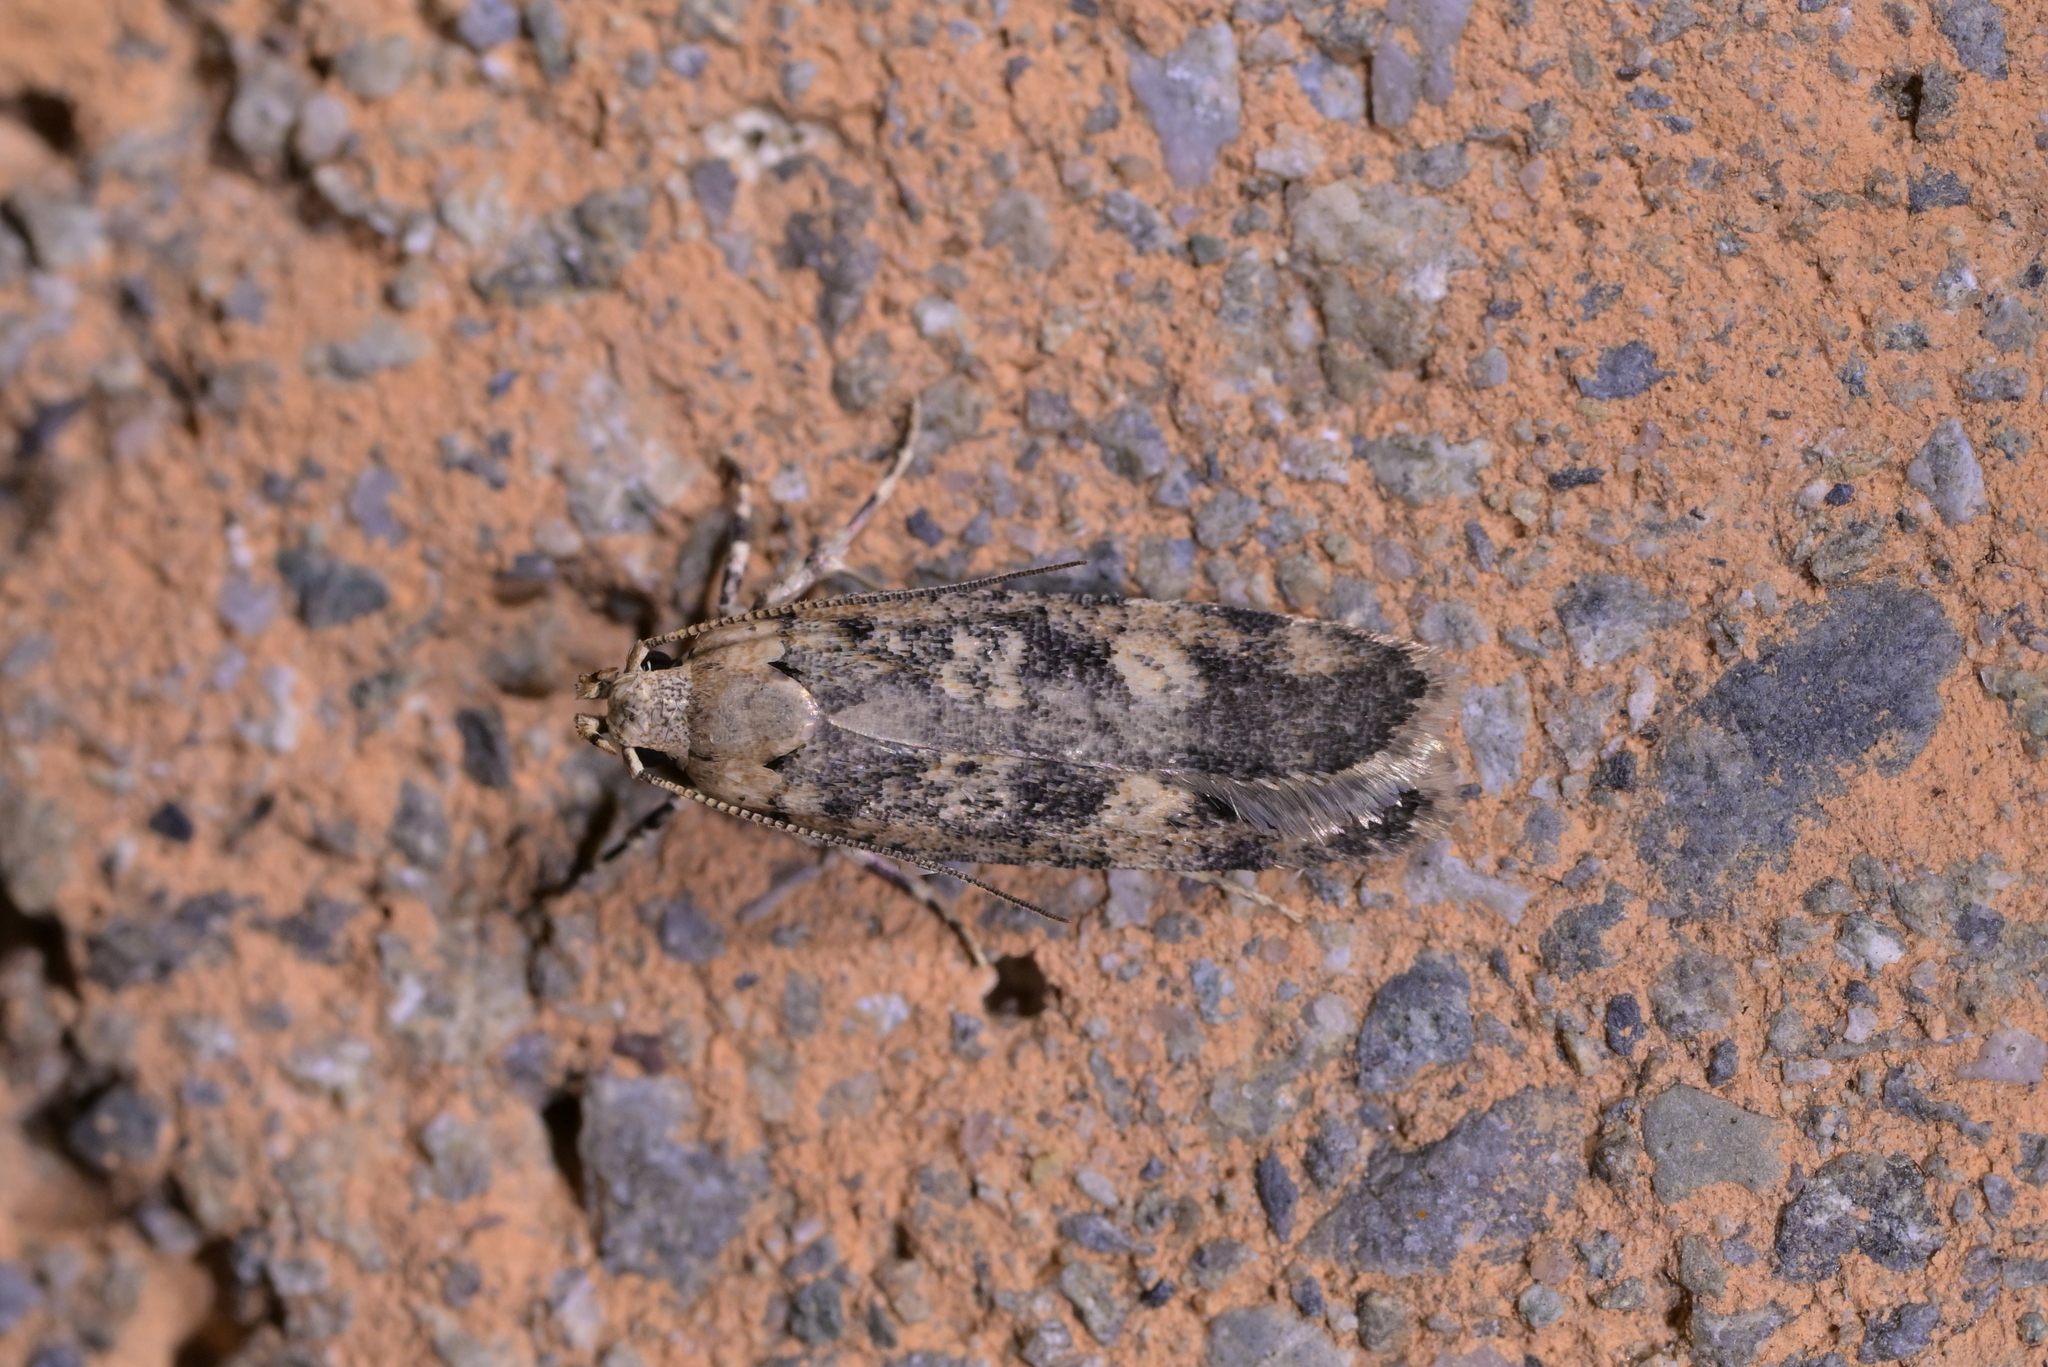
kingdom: Animalia
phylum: Arthropoda
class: Insecta
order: Lepidoptera
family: Gelechiidae
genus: Anisoplaca
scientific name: Anisoplaca cosmia
